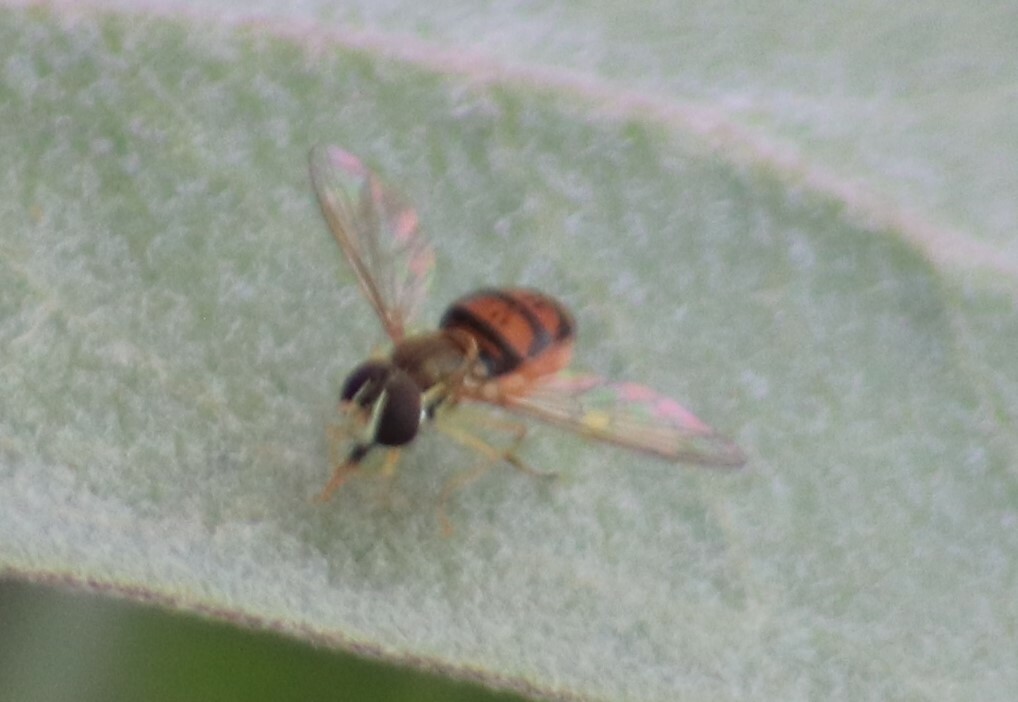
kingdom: Animalia
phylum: Arthropoda
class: Insecta
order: Diptera
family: Syrphidae
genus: Toxomerus
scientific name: Toxomerus marginatus
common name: Syrphid fly
